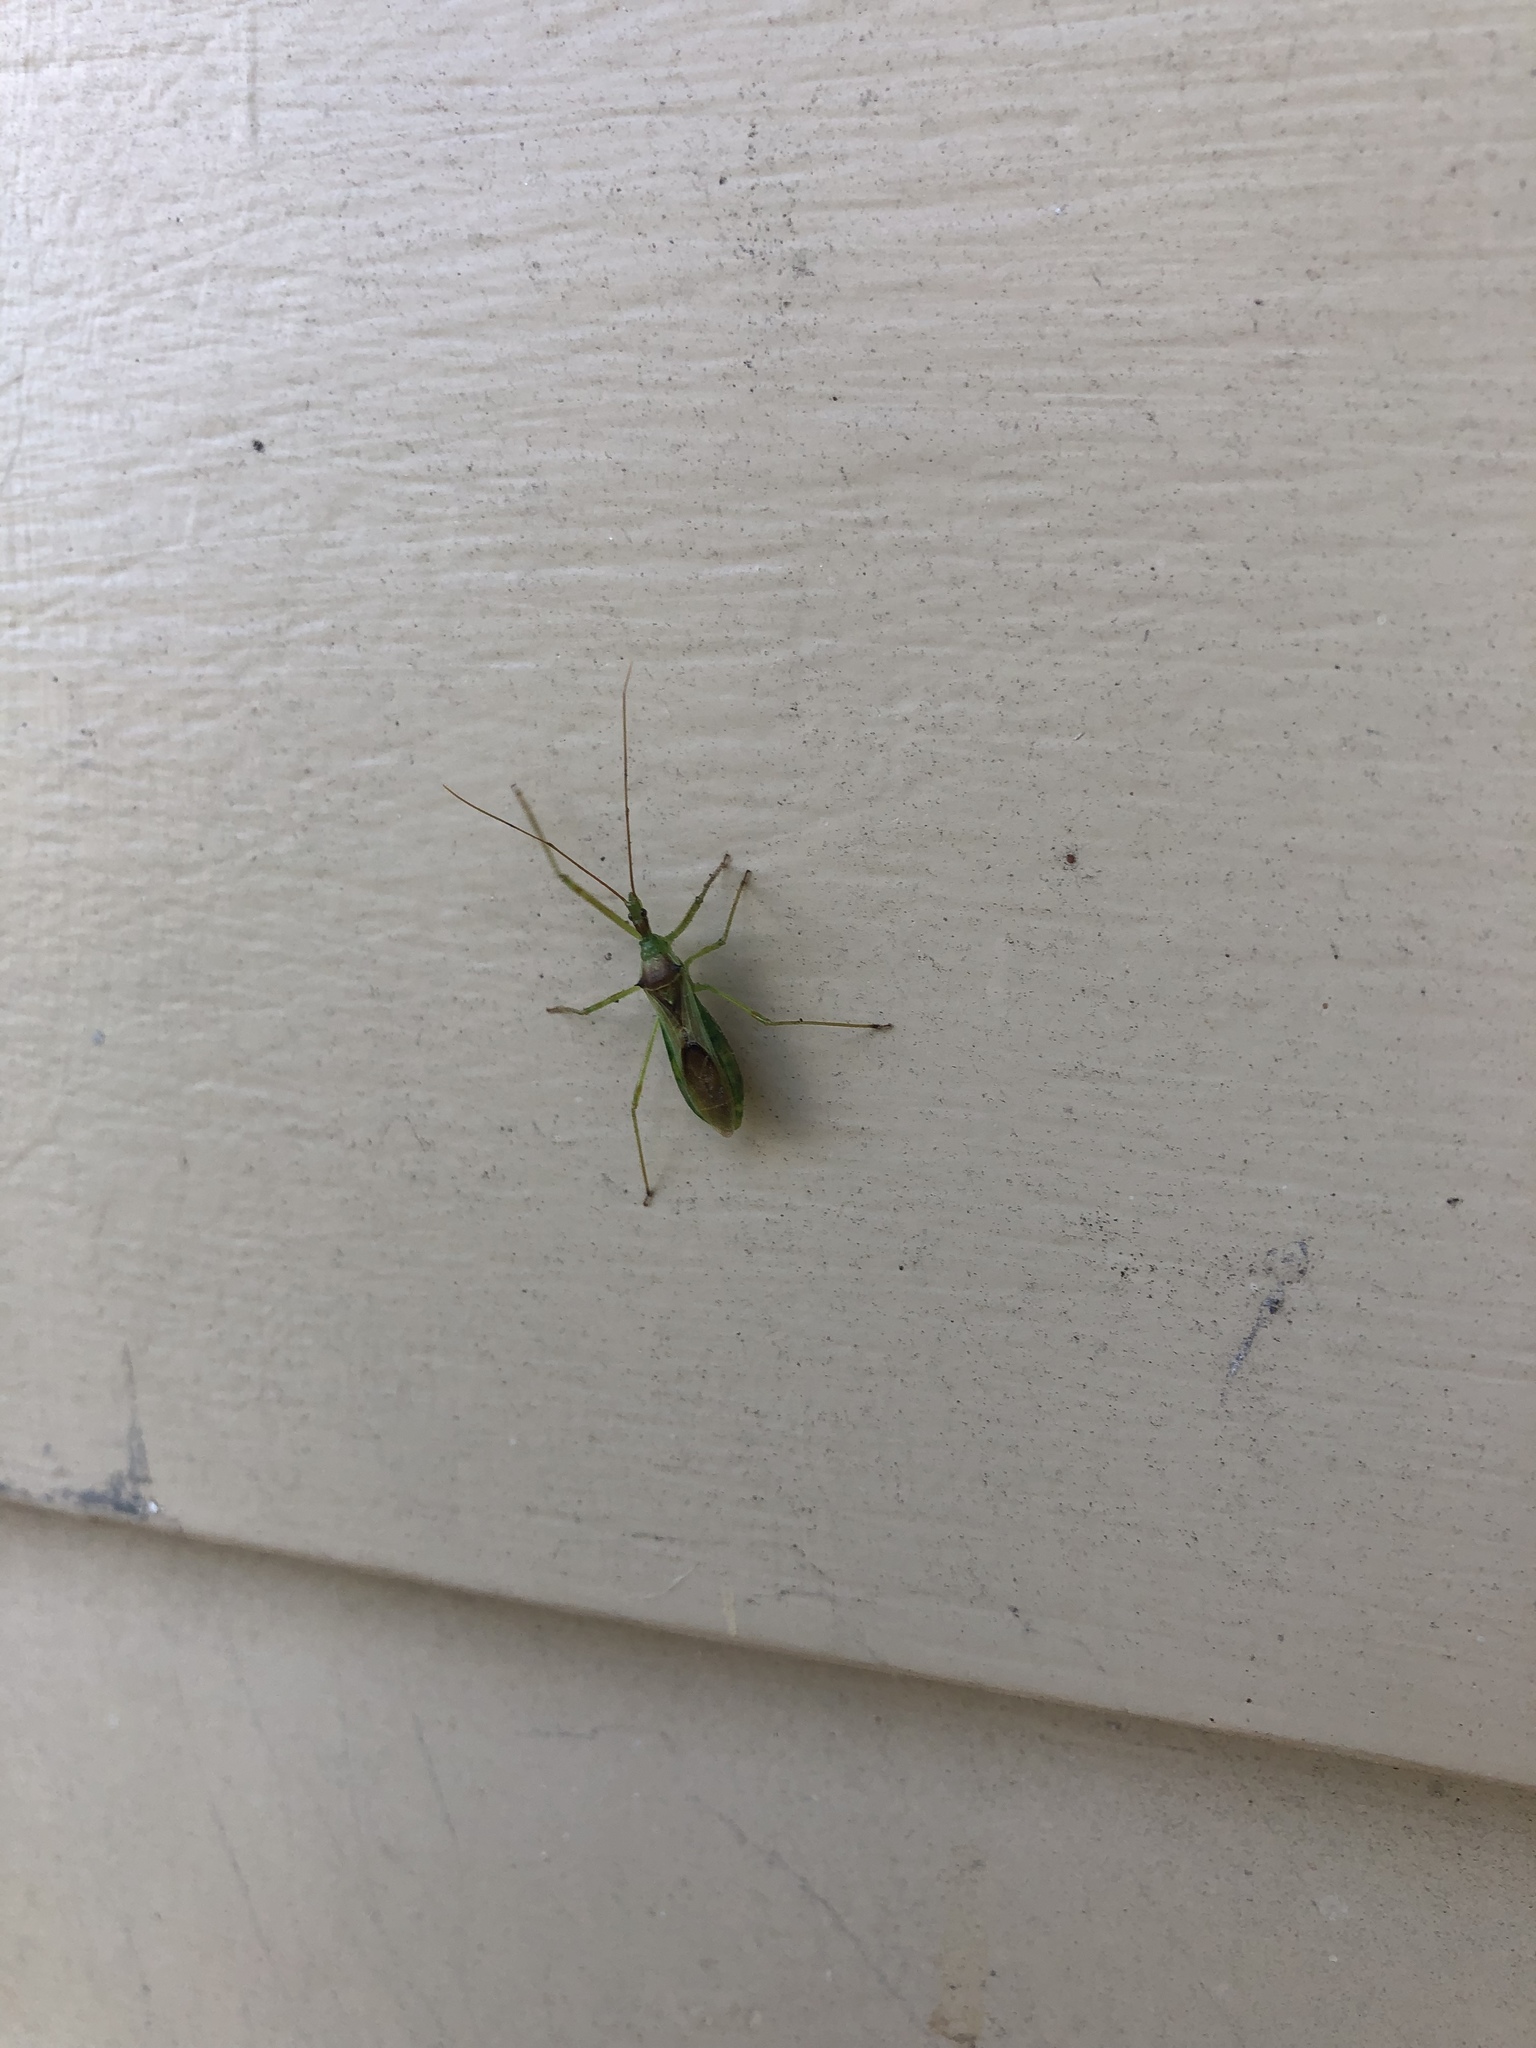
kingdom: Animalia
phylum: Arthropoda
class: Insecta
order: Hemiptera
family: Reduviidae
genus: Zelus
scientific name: Zelus luridus
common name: Pale green assassin bug
